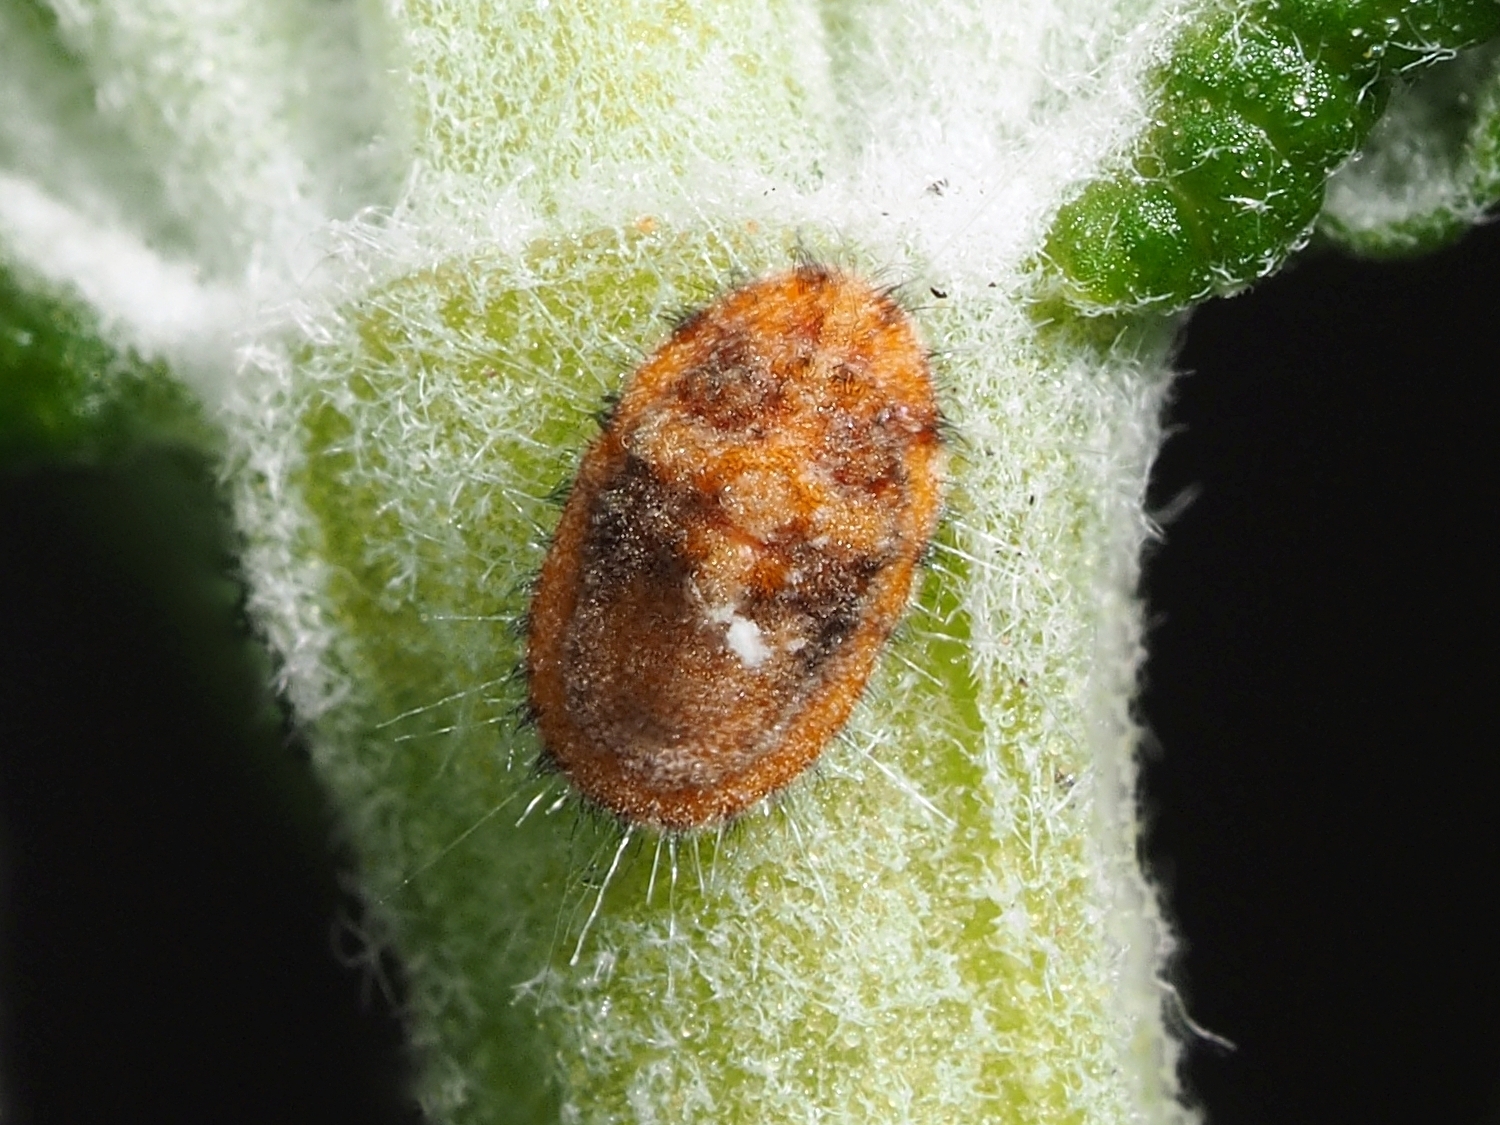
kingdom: Animalia
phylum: Arthropoda
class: Insecta
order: Hemiptera
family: Margarodidae
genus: Icerya
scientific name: Icerya purchasi
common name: Cottony cushion scale
